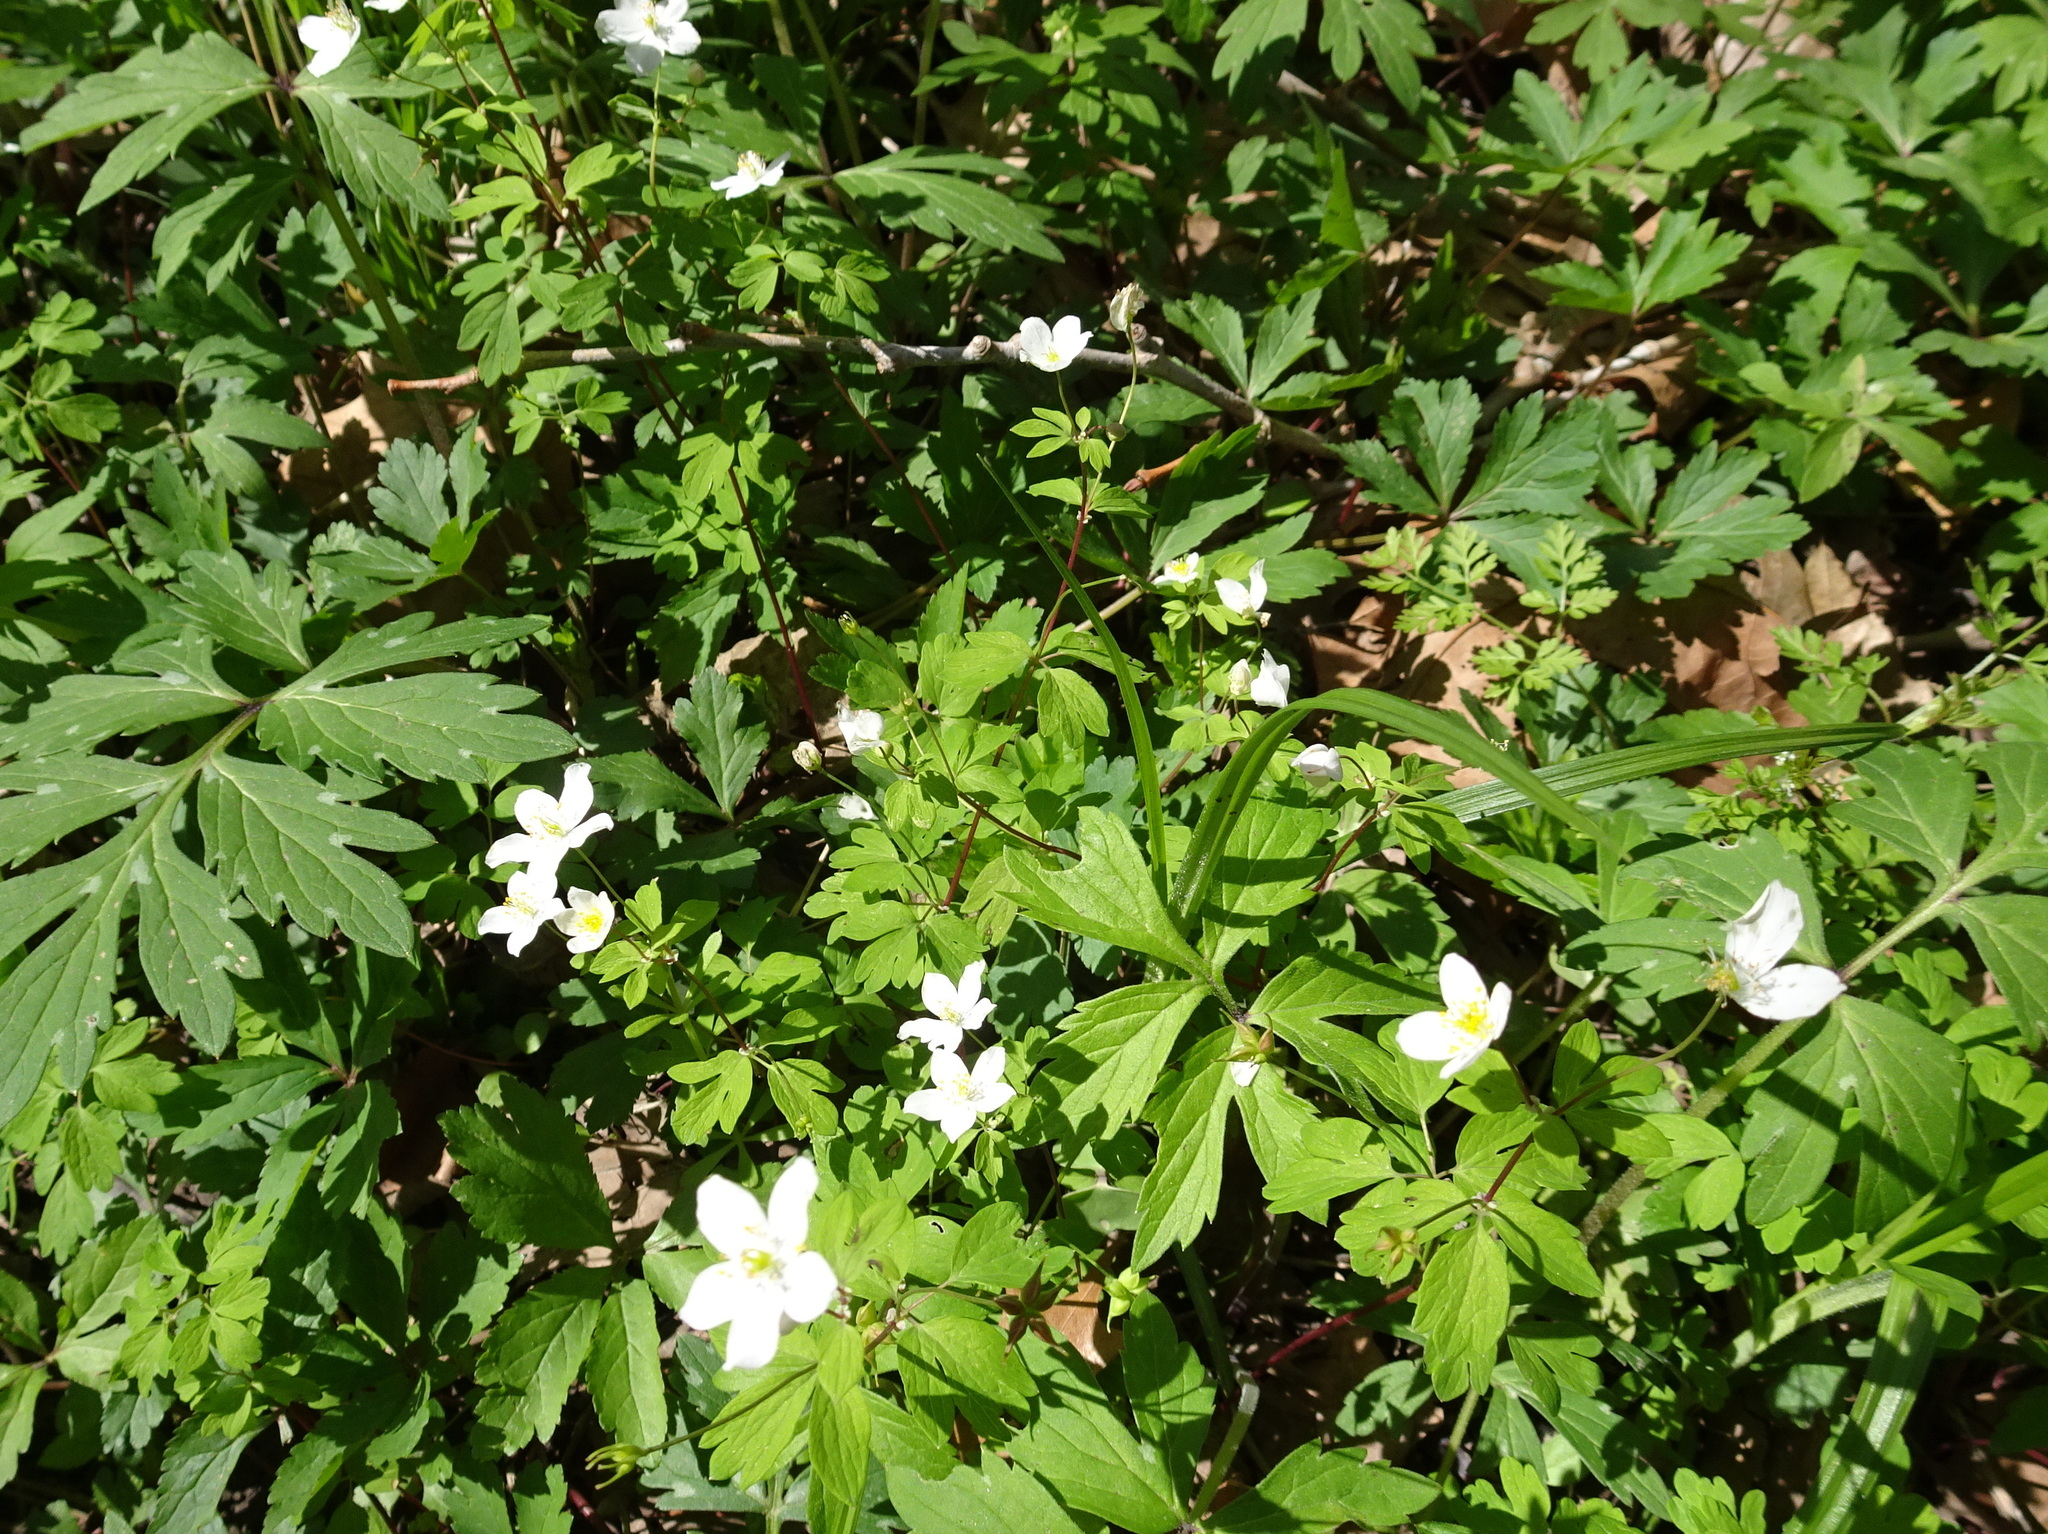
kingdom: Plantae
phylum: Tracheophyta
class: Magnoliopsida
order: Ranunculales
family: Ranunculaceae
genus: Enemion
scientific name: Enemion biternatum
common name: Eastern false rue-anemone
